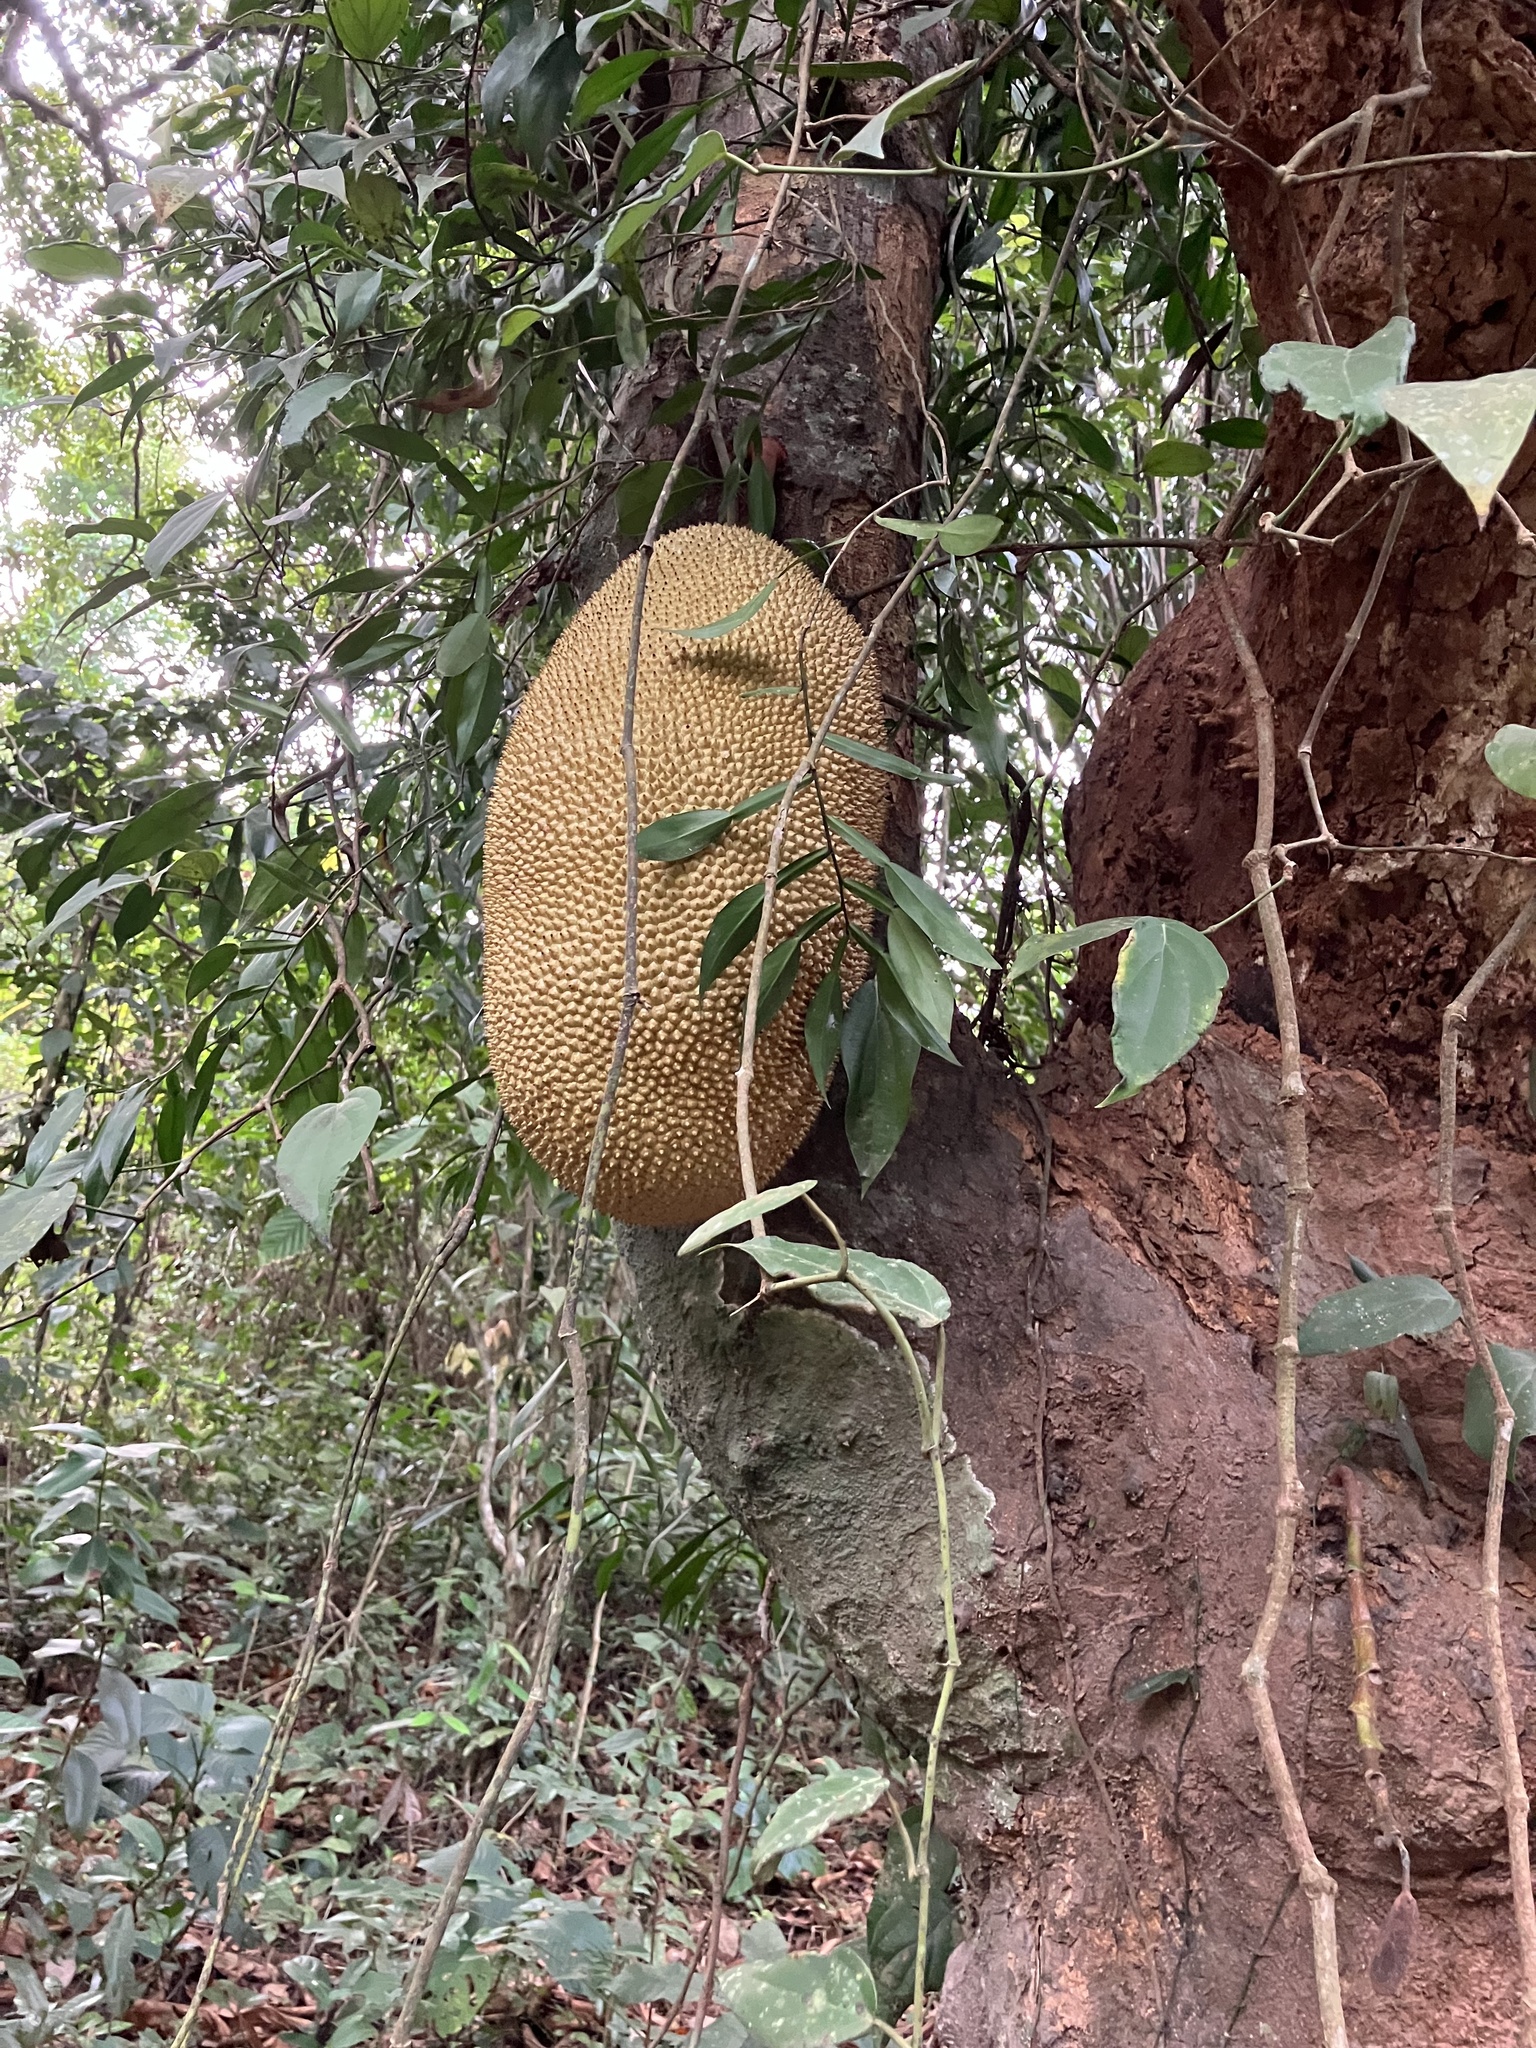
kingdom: Plantae
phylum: Tracheophyta
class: Magnoliopsida
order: Rosales
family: Moraceae
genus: Artocarpus
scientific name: Artocarpus heterophyllus
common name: Jackfruit
